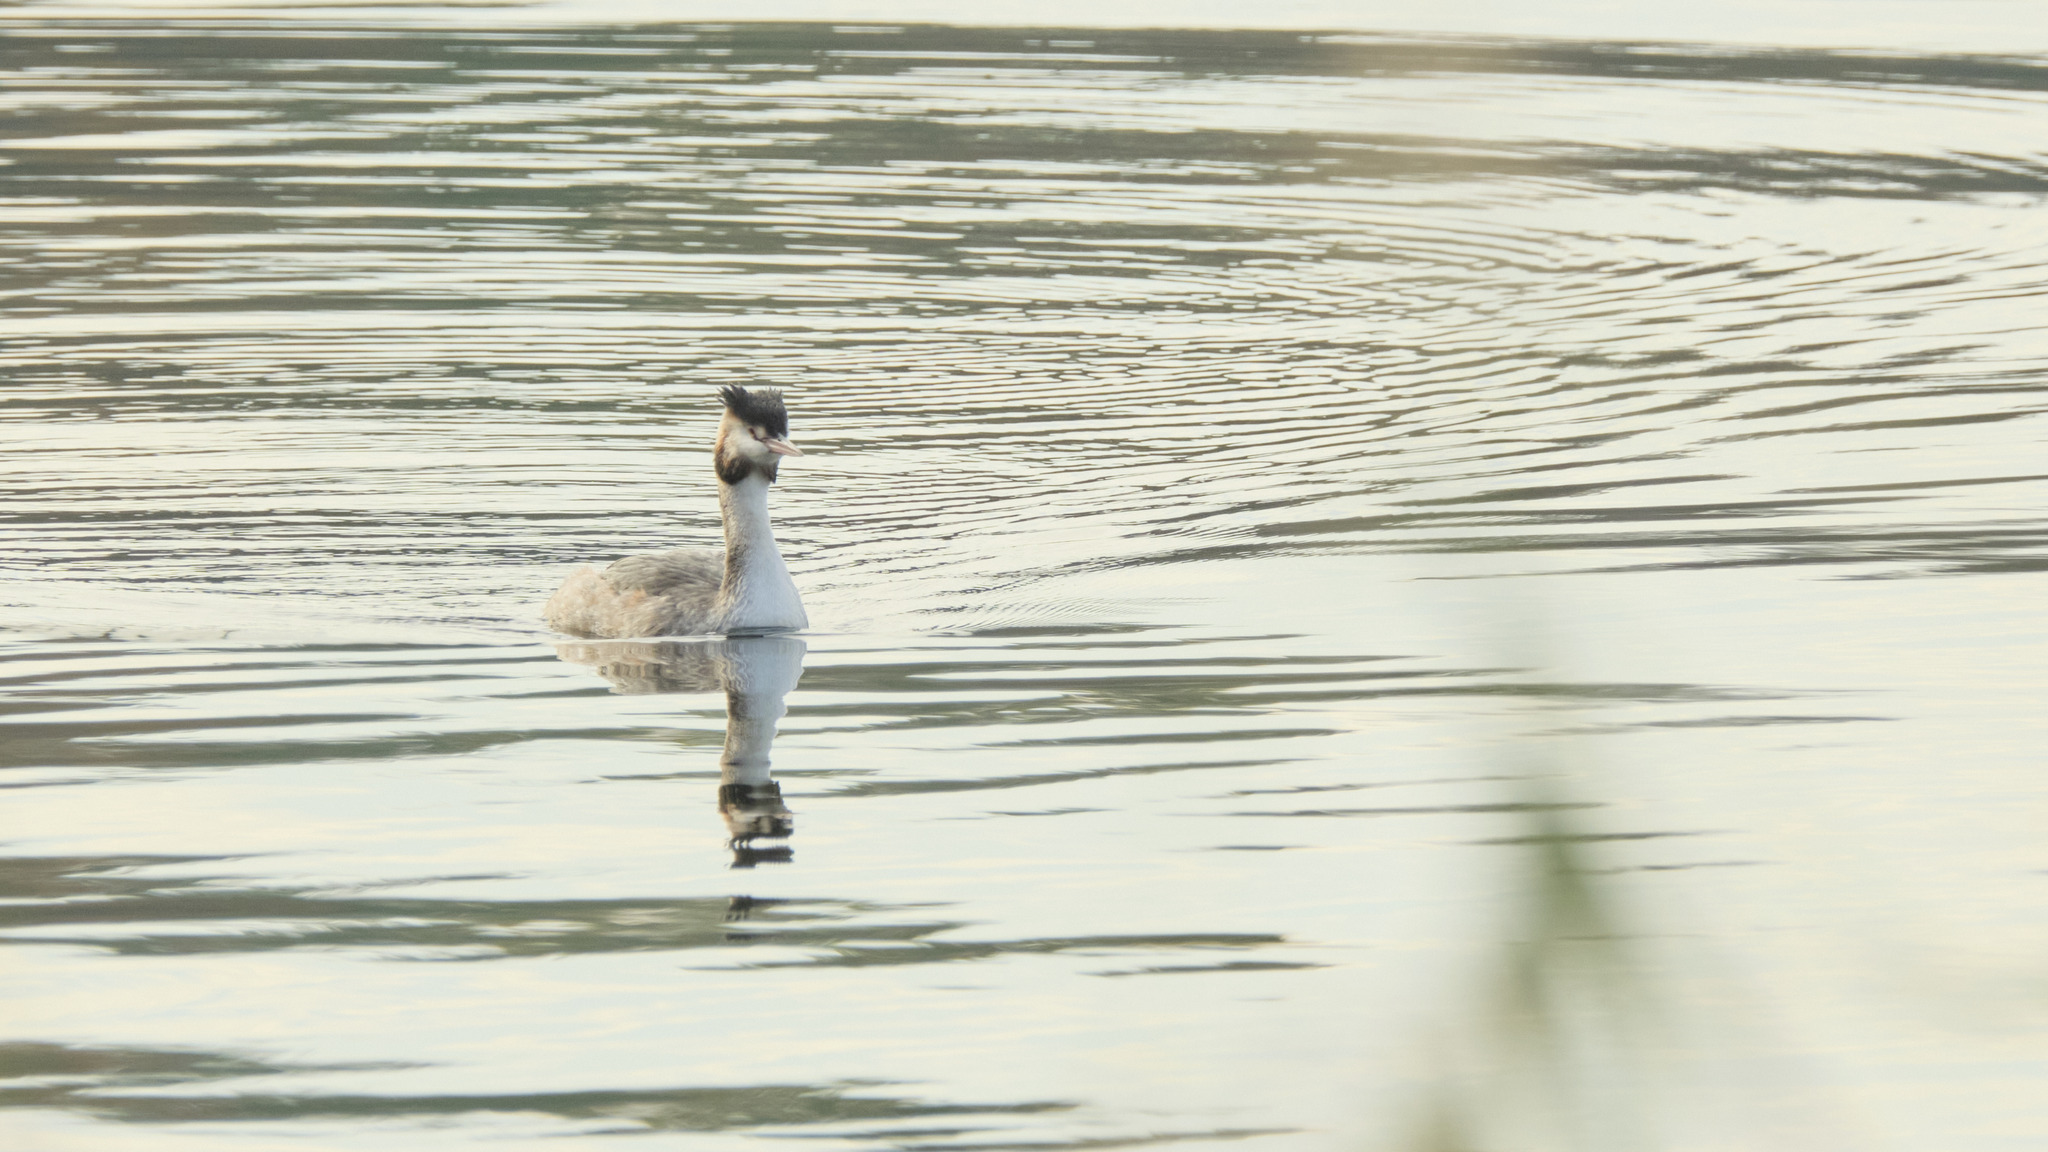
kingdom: Animalia
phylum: Chordata
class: Aves
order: Podicipediformes
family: Podicipedidae
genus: Podiceps
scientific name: Podiceps cristatus
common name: Great crested grebe
